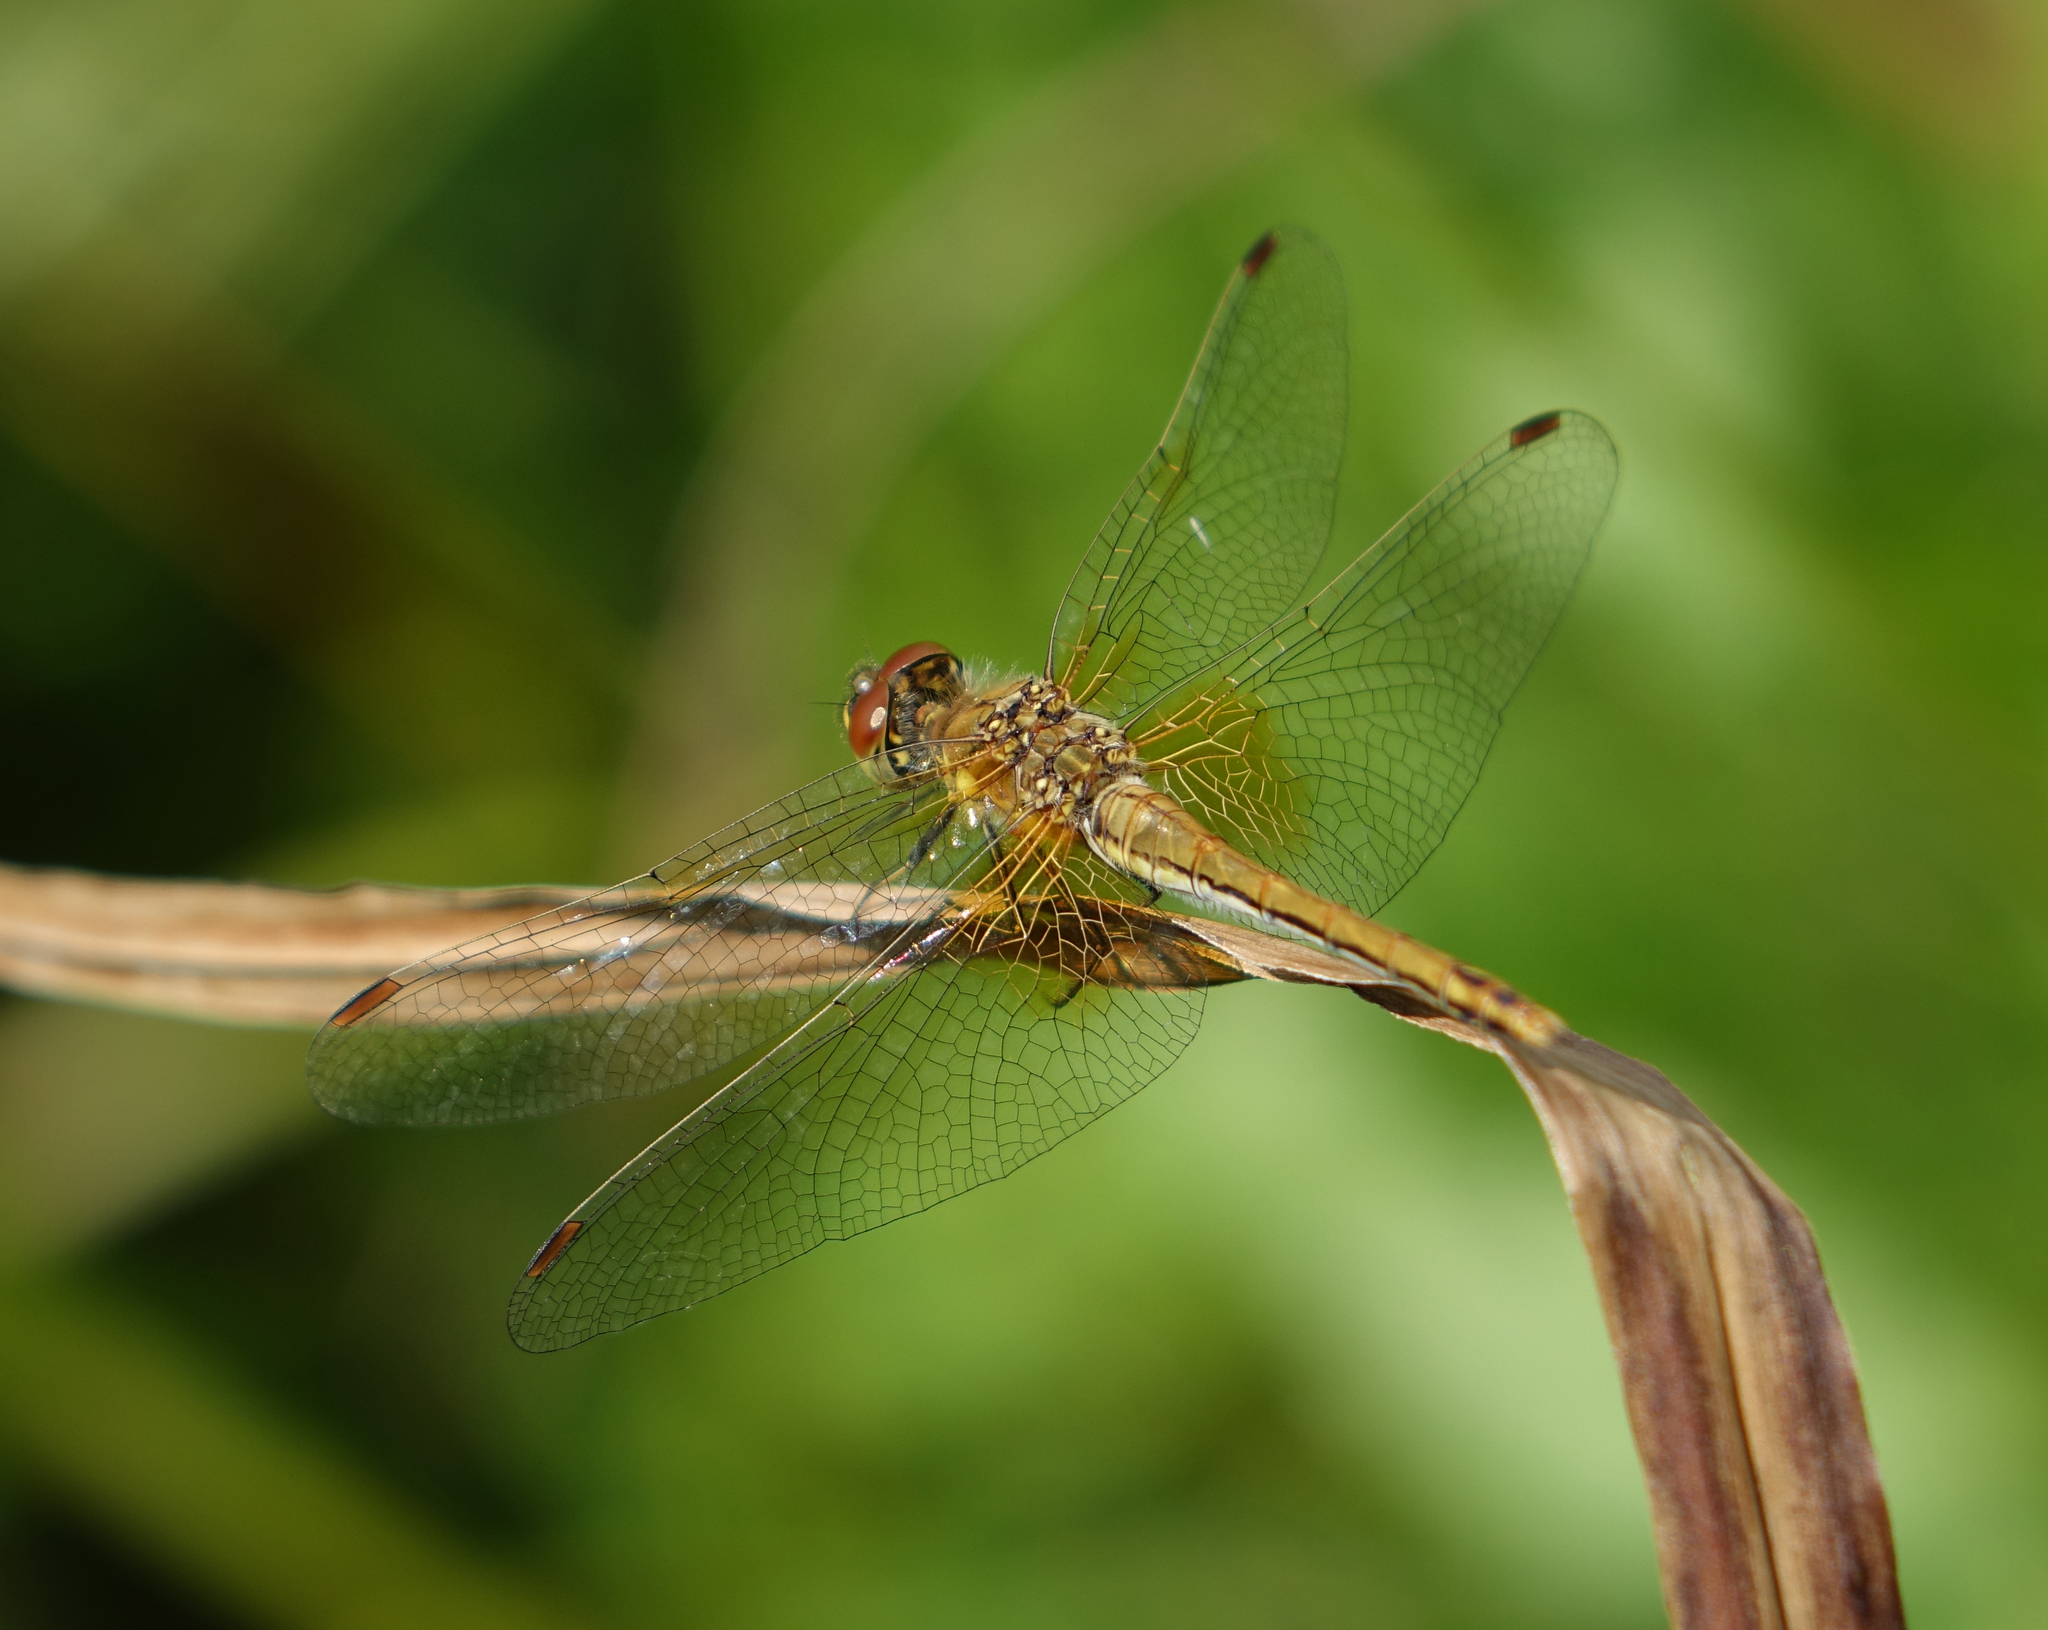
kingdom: Animalia
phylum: Arthropoda
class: Insecta
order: Odonata
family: Libellulidae
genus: Sympetrum
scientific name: Sympetrum flaveolum
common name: Yellow-winged darter
